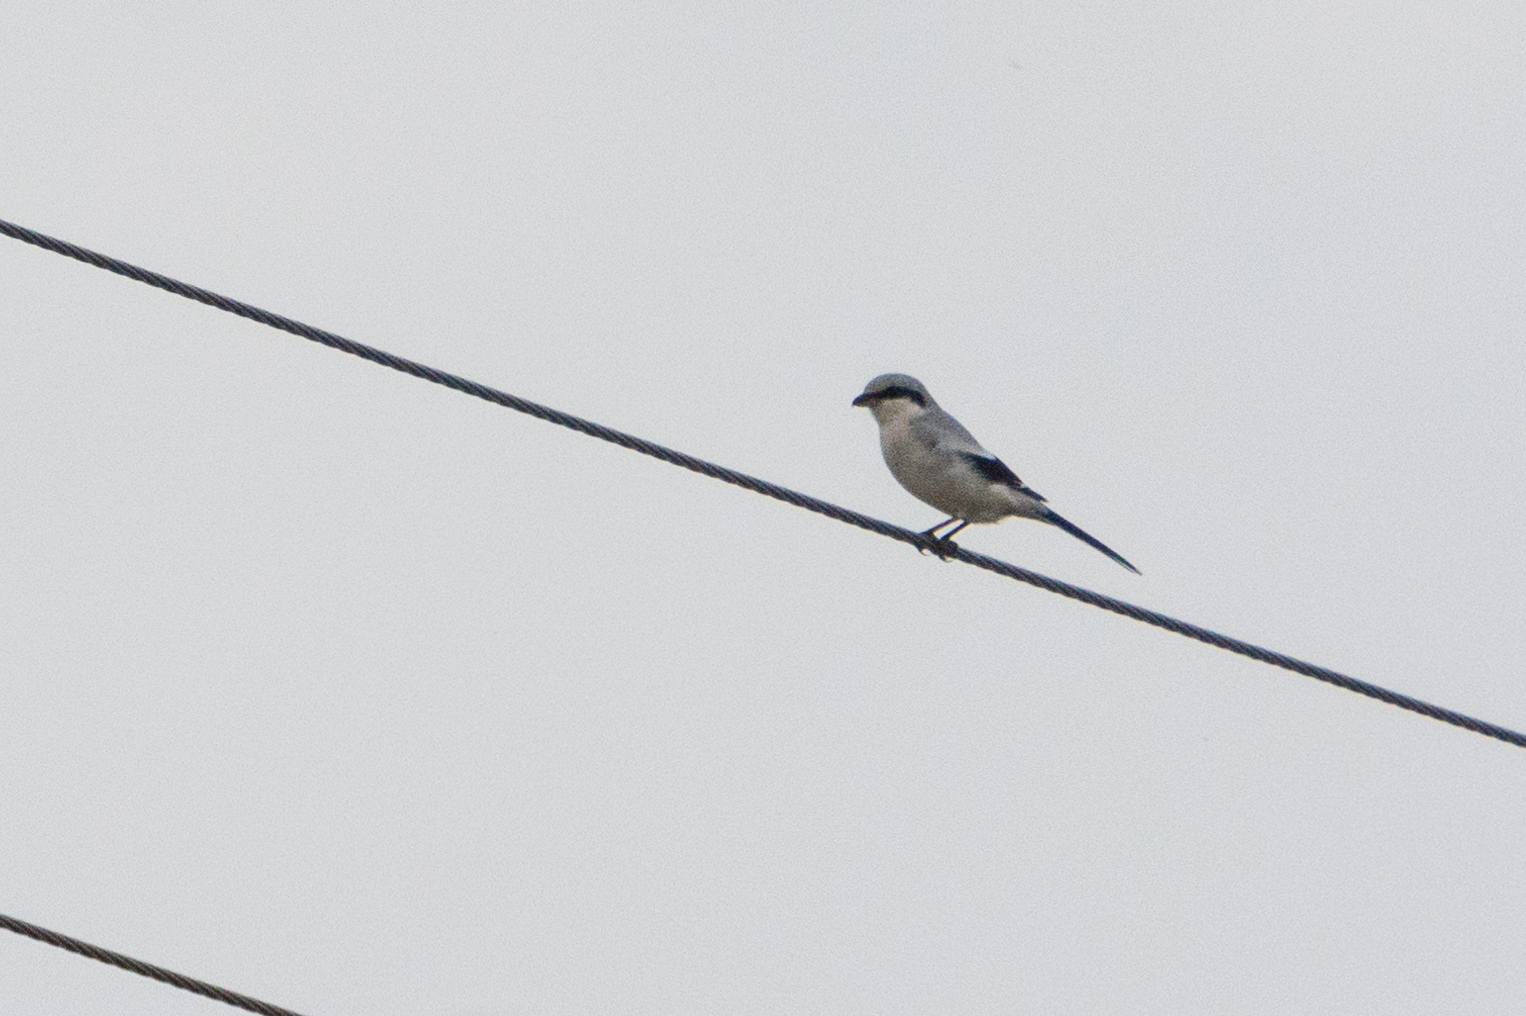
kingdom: Animalia
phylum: Chordata
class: Aves
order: Passeriformes
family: Laniidae
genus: Lanius
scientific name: Lanius excubitor
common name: Great grey shrike
